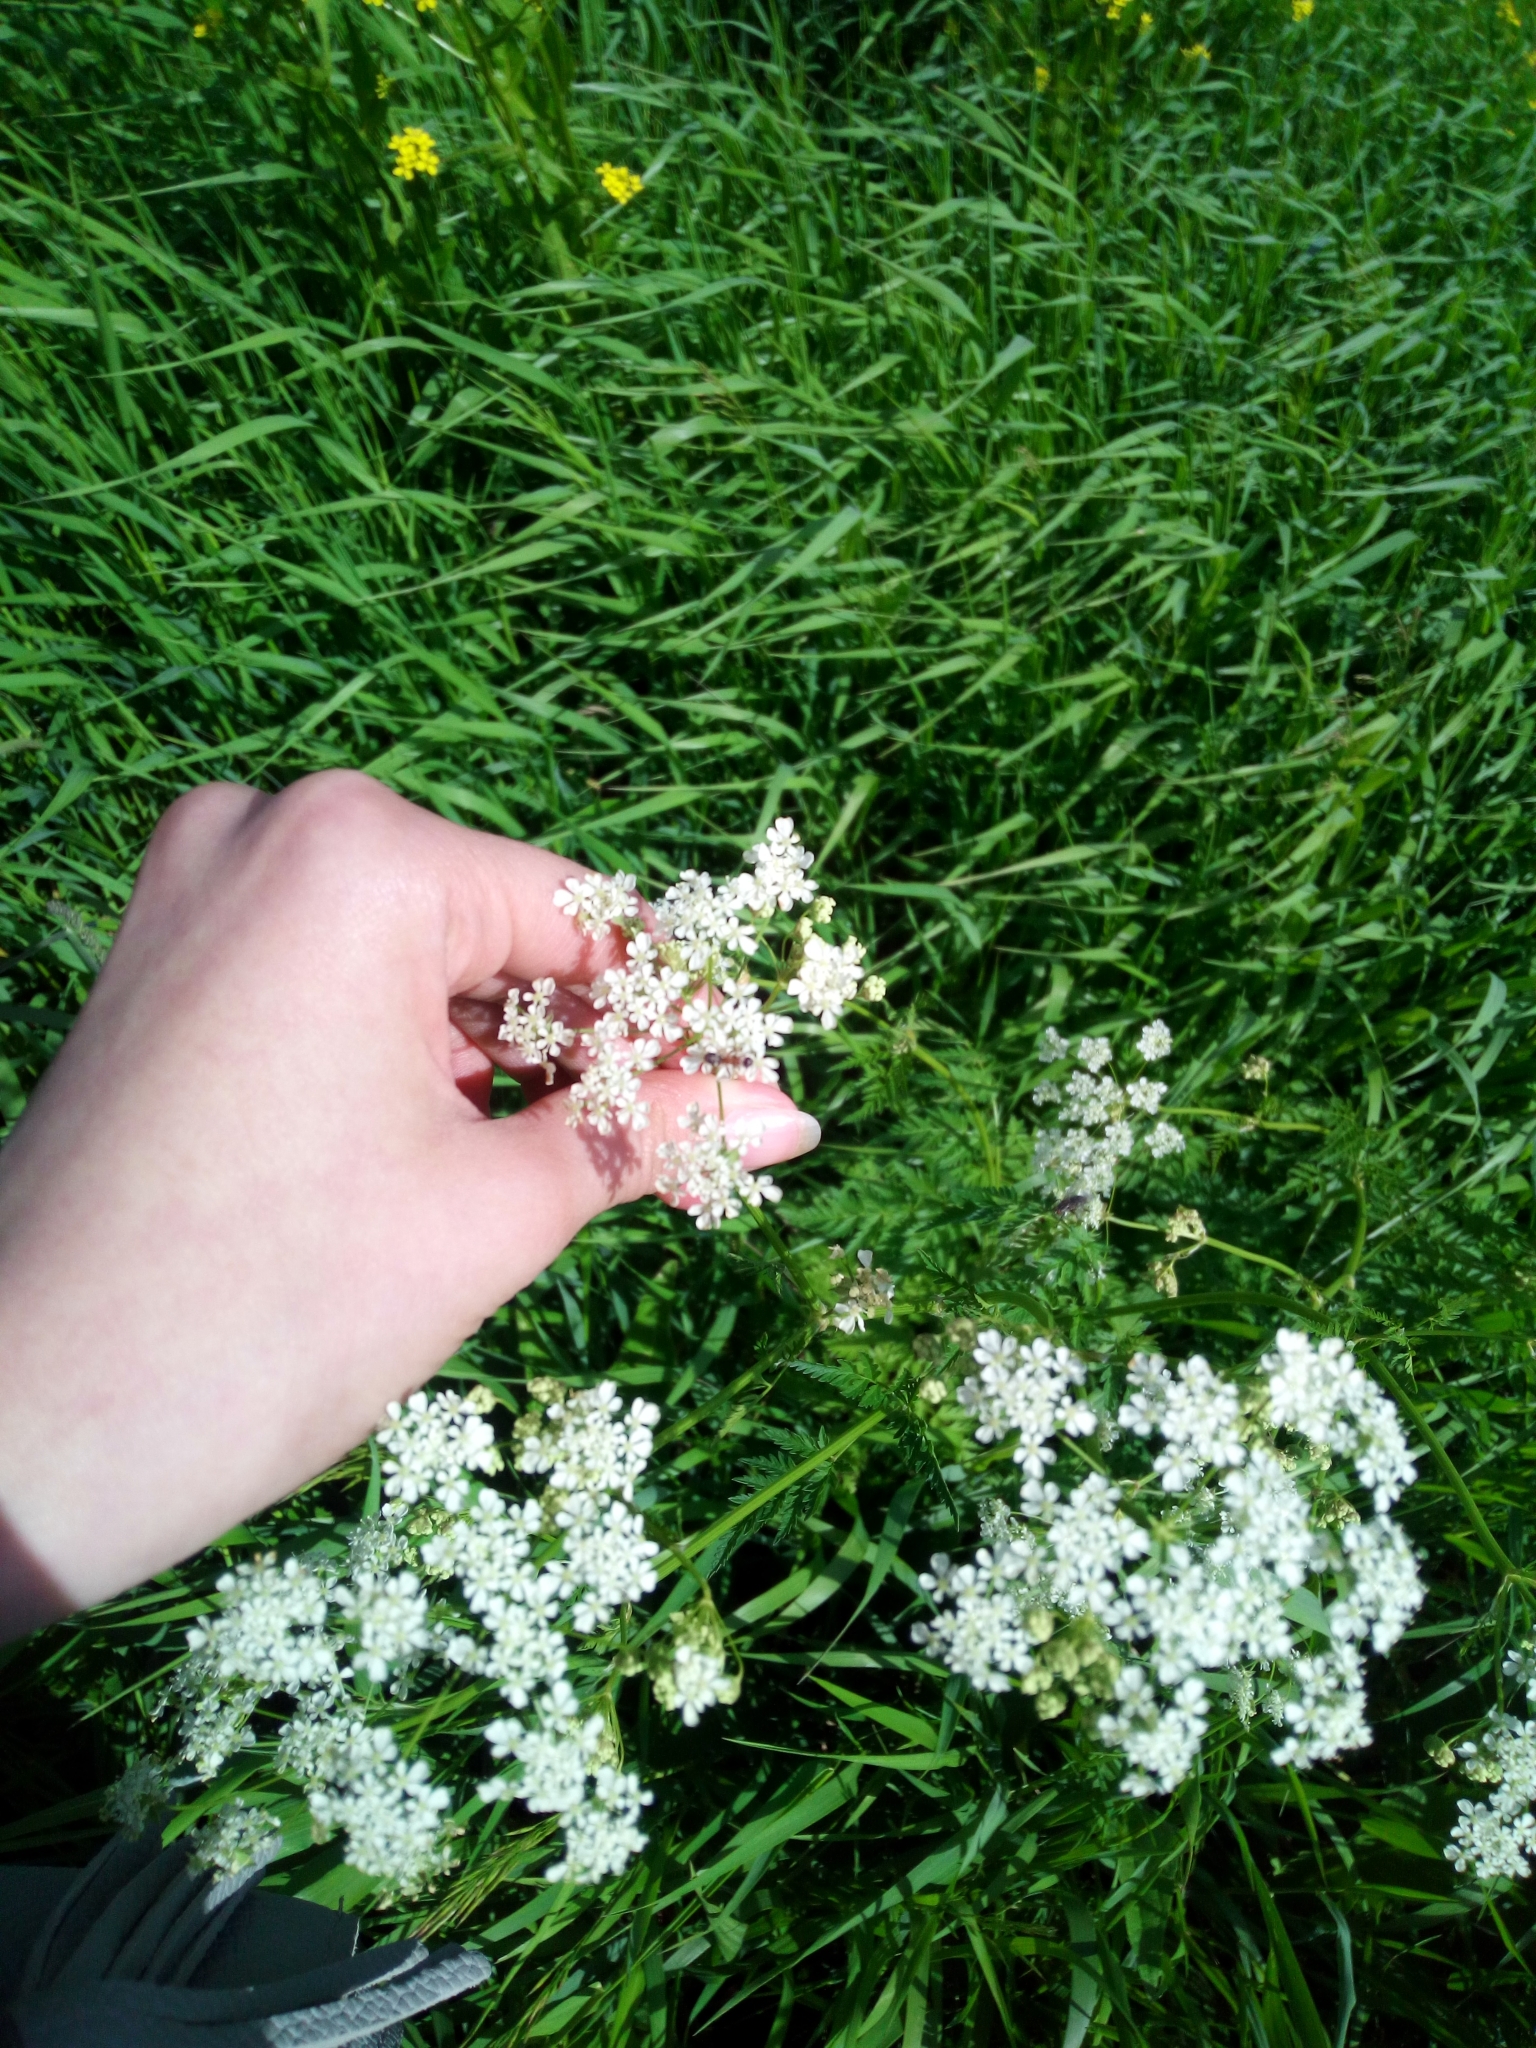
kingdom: Plantae
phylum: Tracheophyta
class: Magnoliopsida
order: Apiales
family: Apiaceae
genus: Anthriscus
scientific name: Anthriscus sylvestris
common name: Cow parsley
